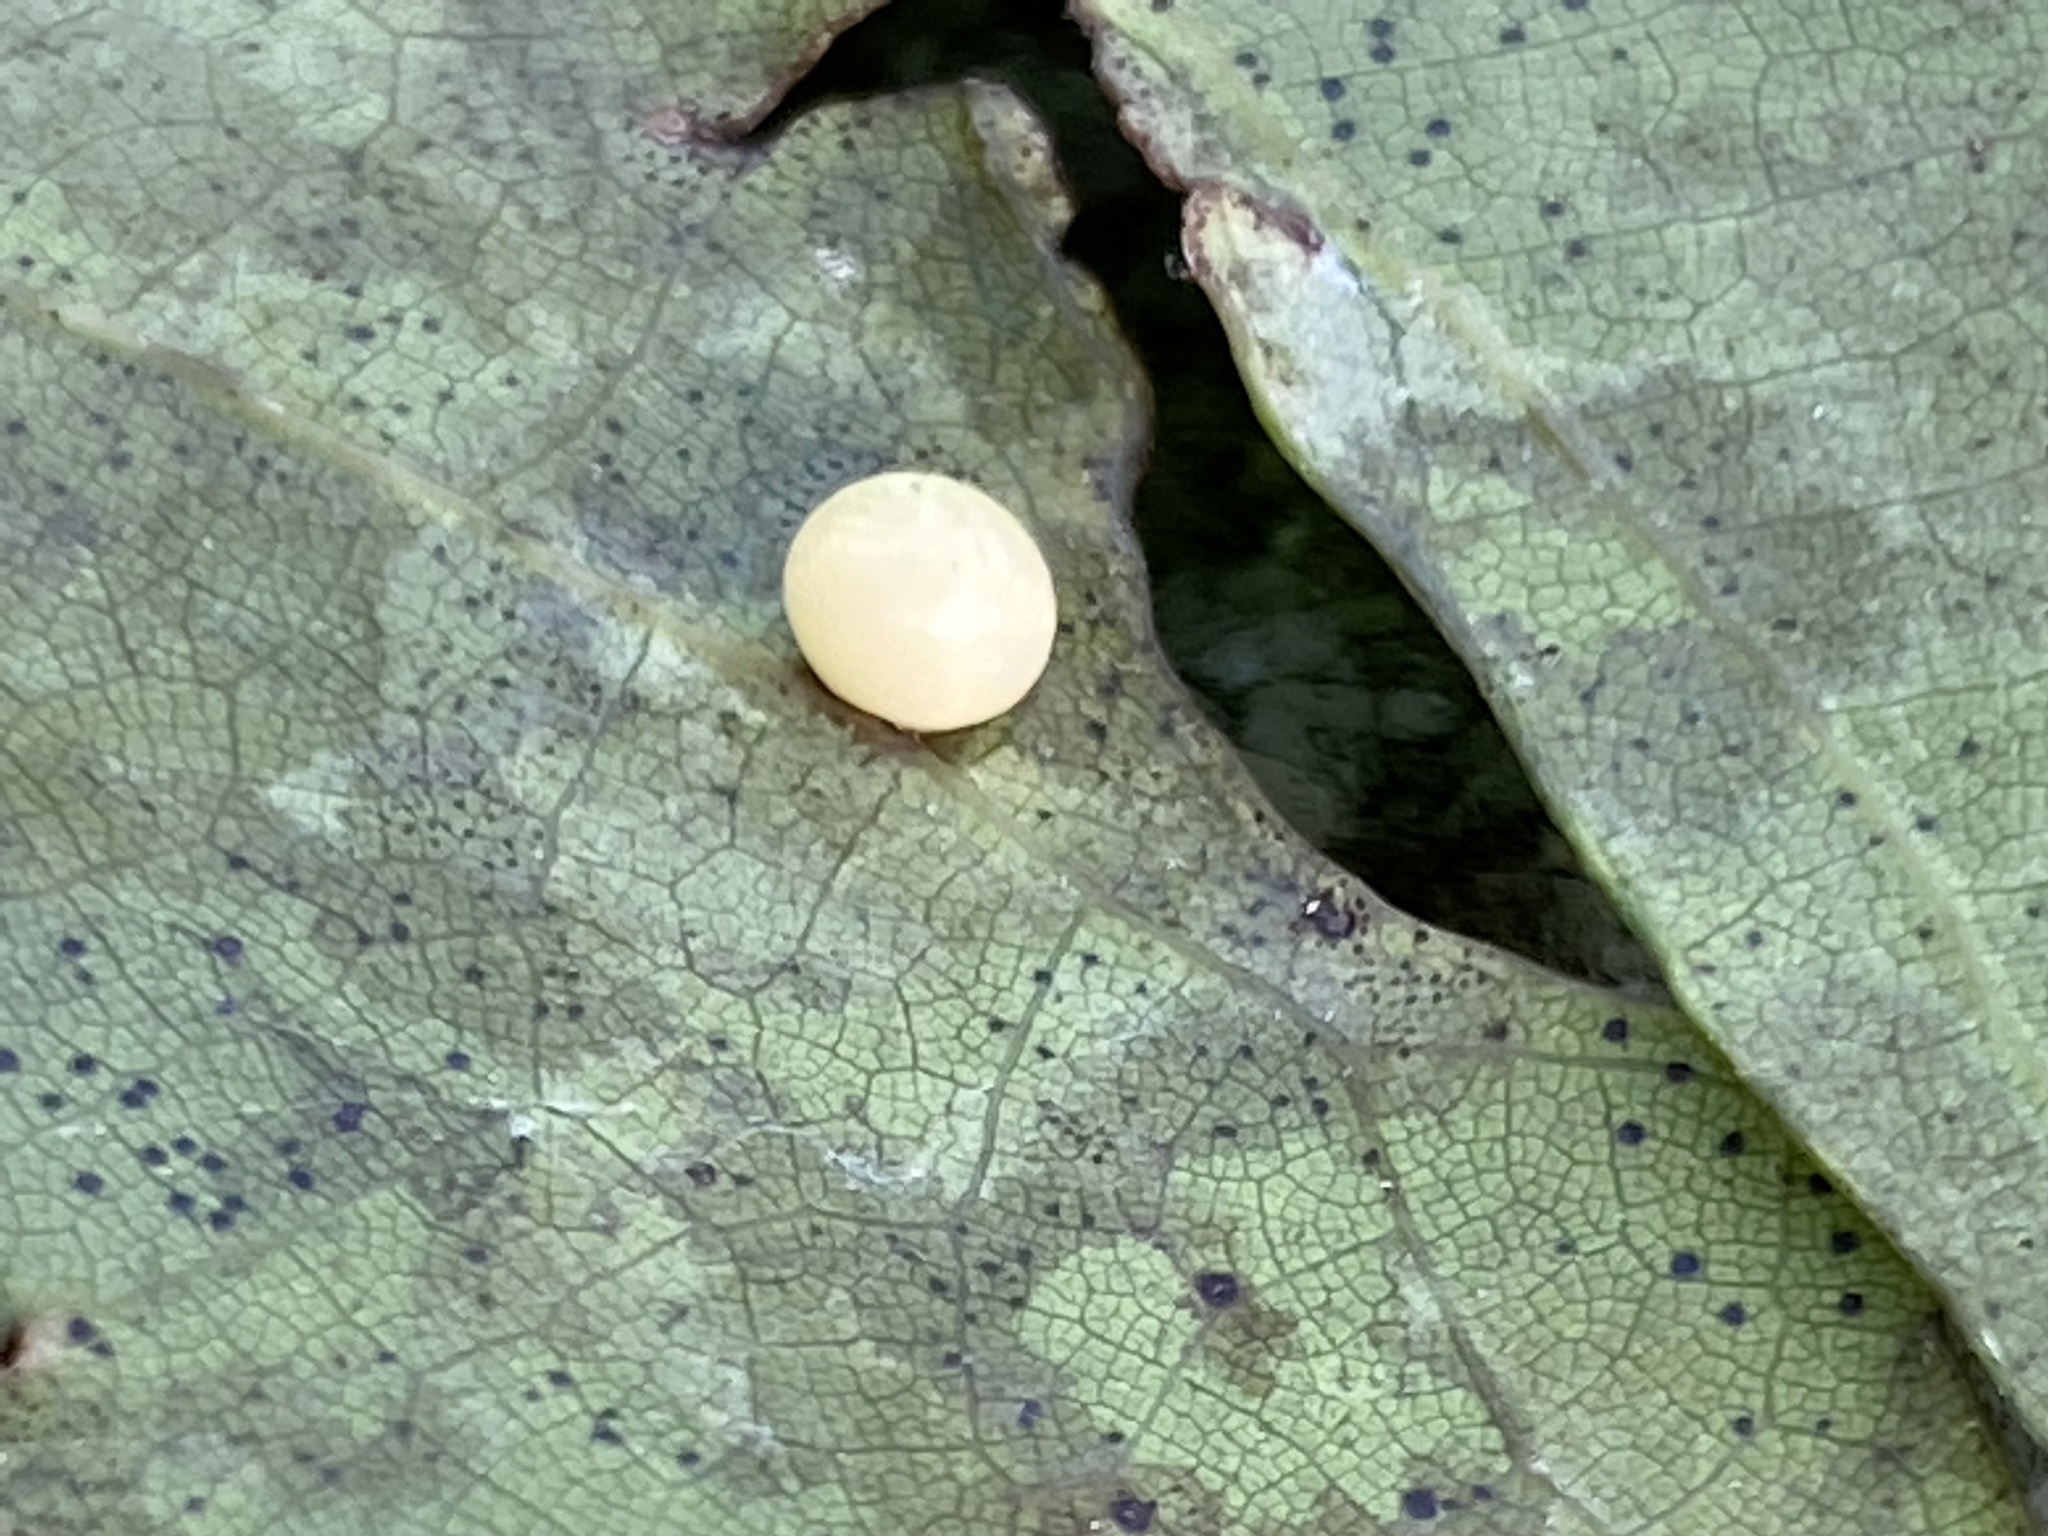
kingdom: Animalia
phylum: Arthropoda
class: Insecta
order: Hymenoptera
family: Cynipidae
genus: Zopheroteras
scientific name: Zopheroteras
